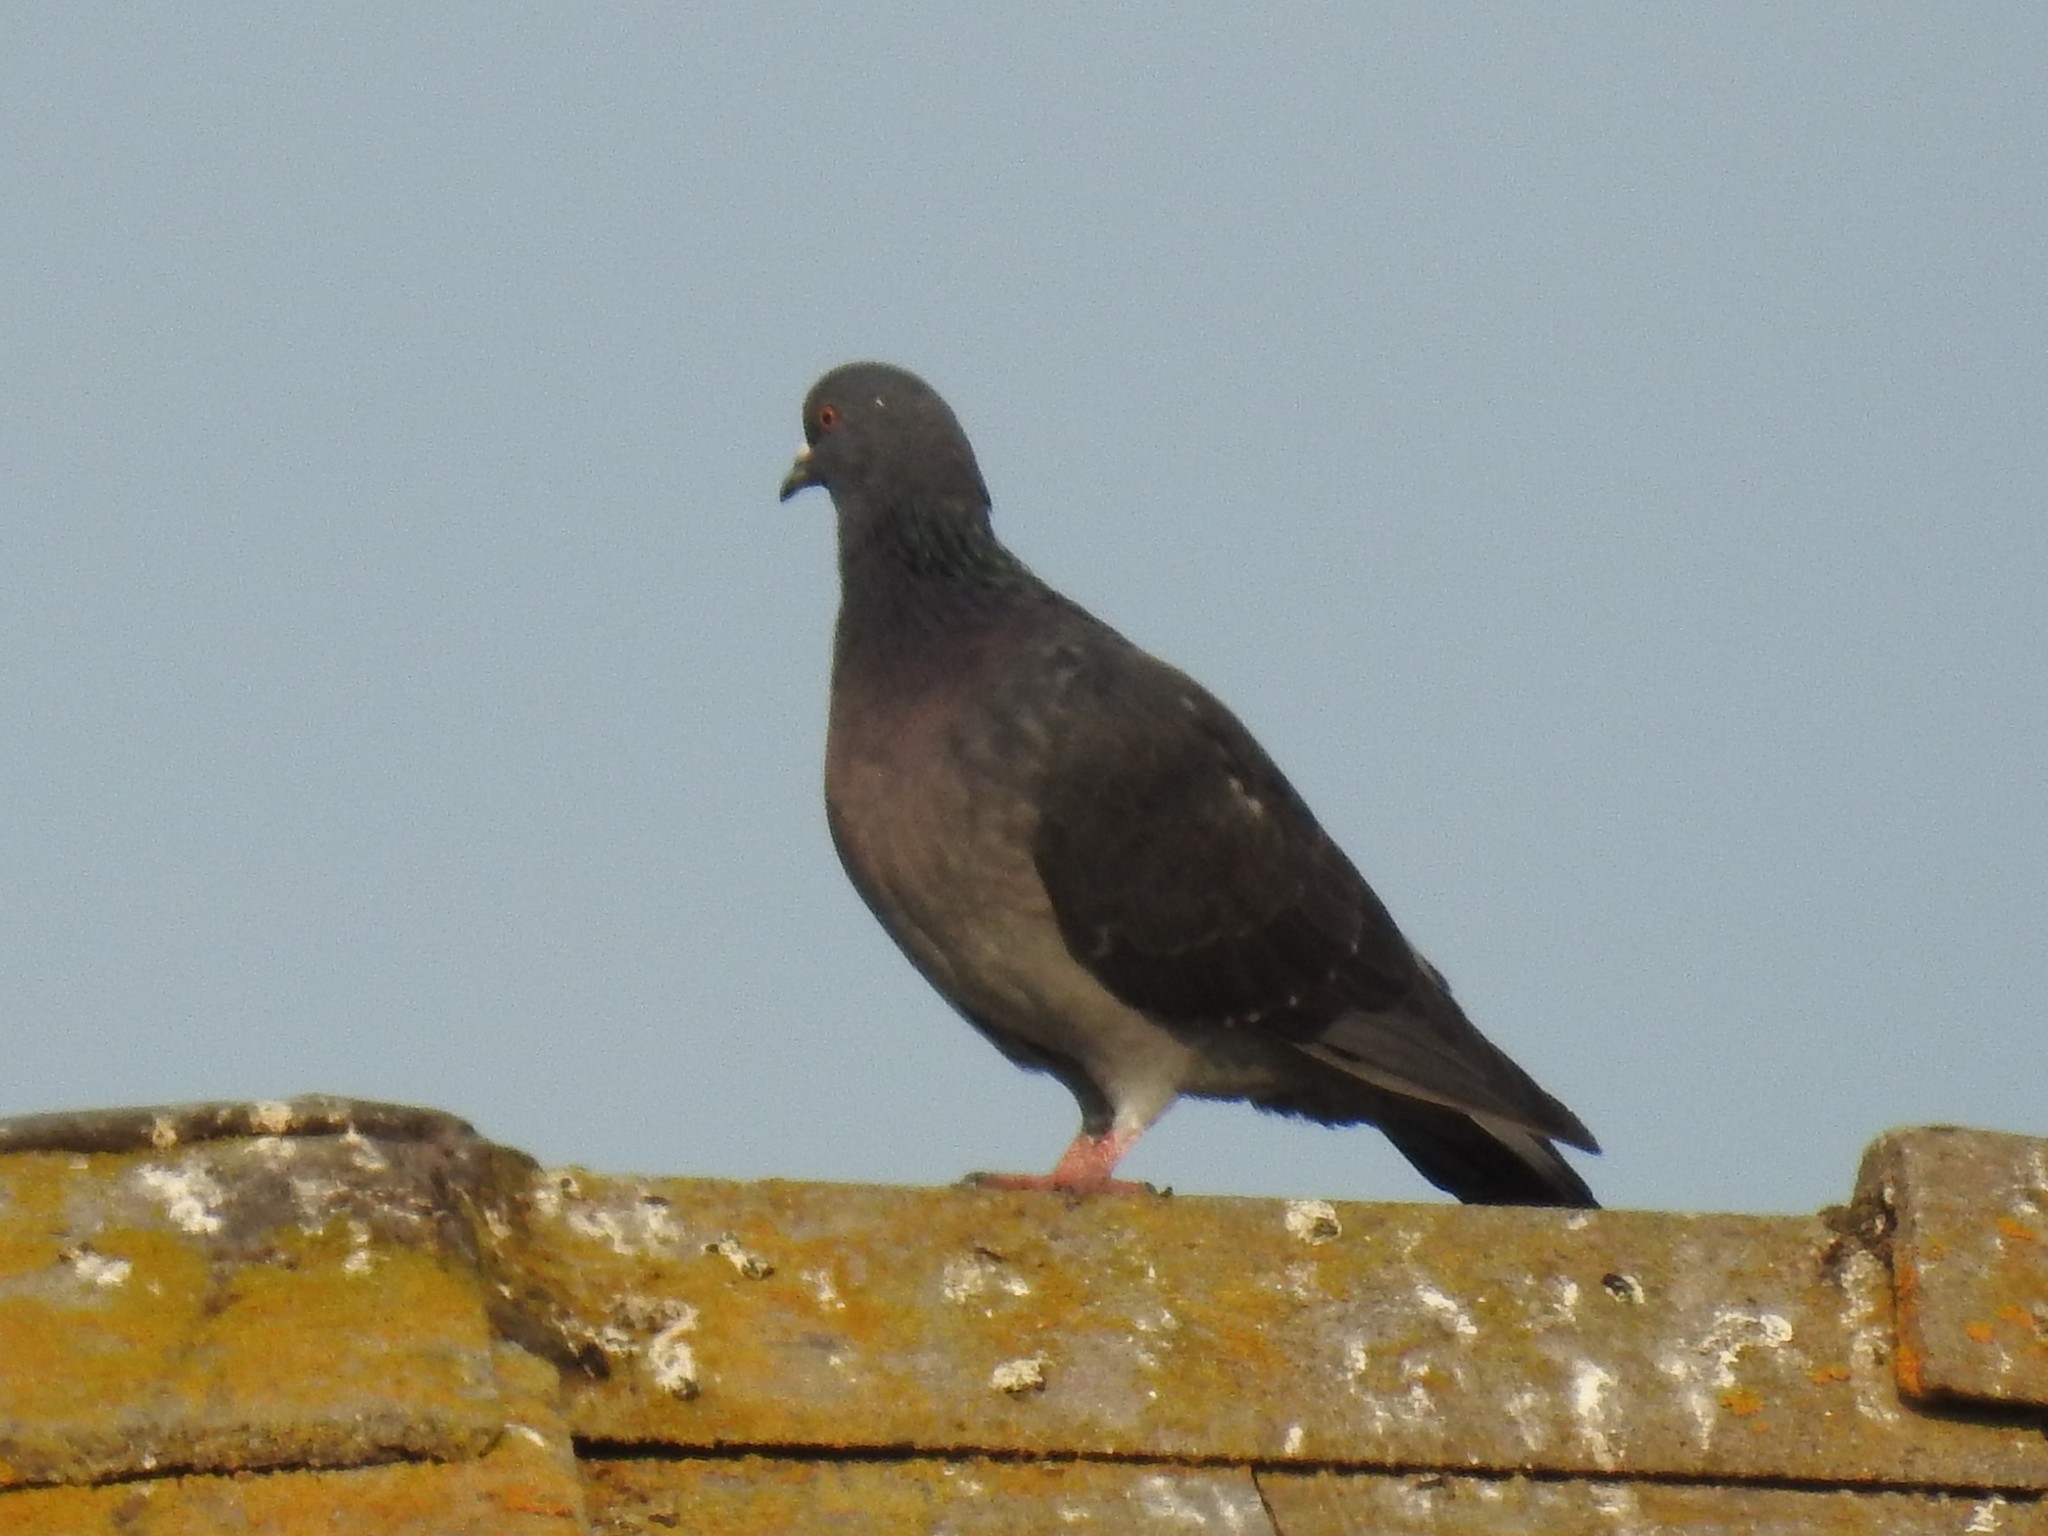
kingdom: Animalia
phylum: Chordata
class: Aves
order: Columbiformes
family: Columbidae
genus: Columba
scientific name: Columba livia
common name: Rock pigeon
